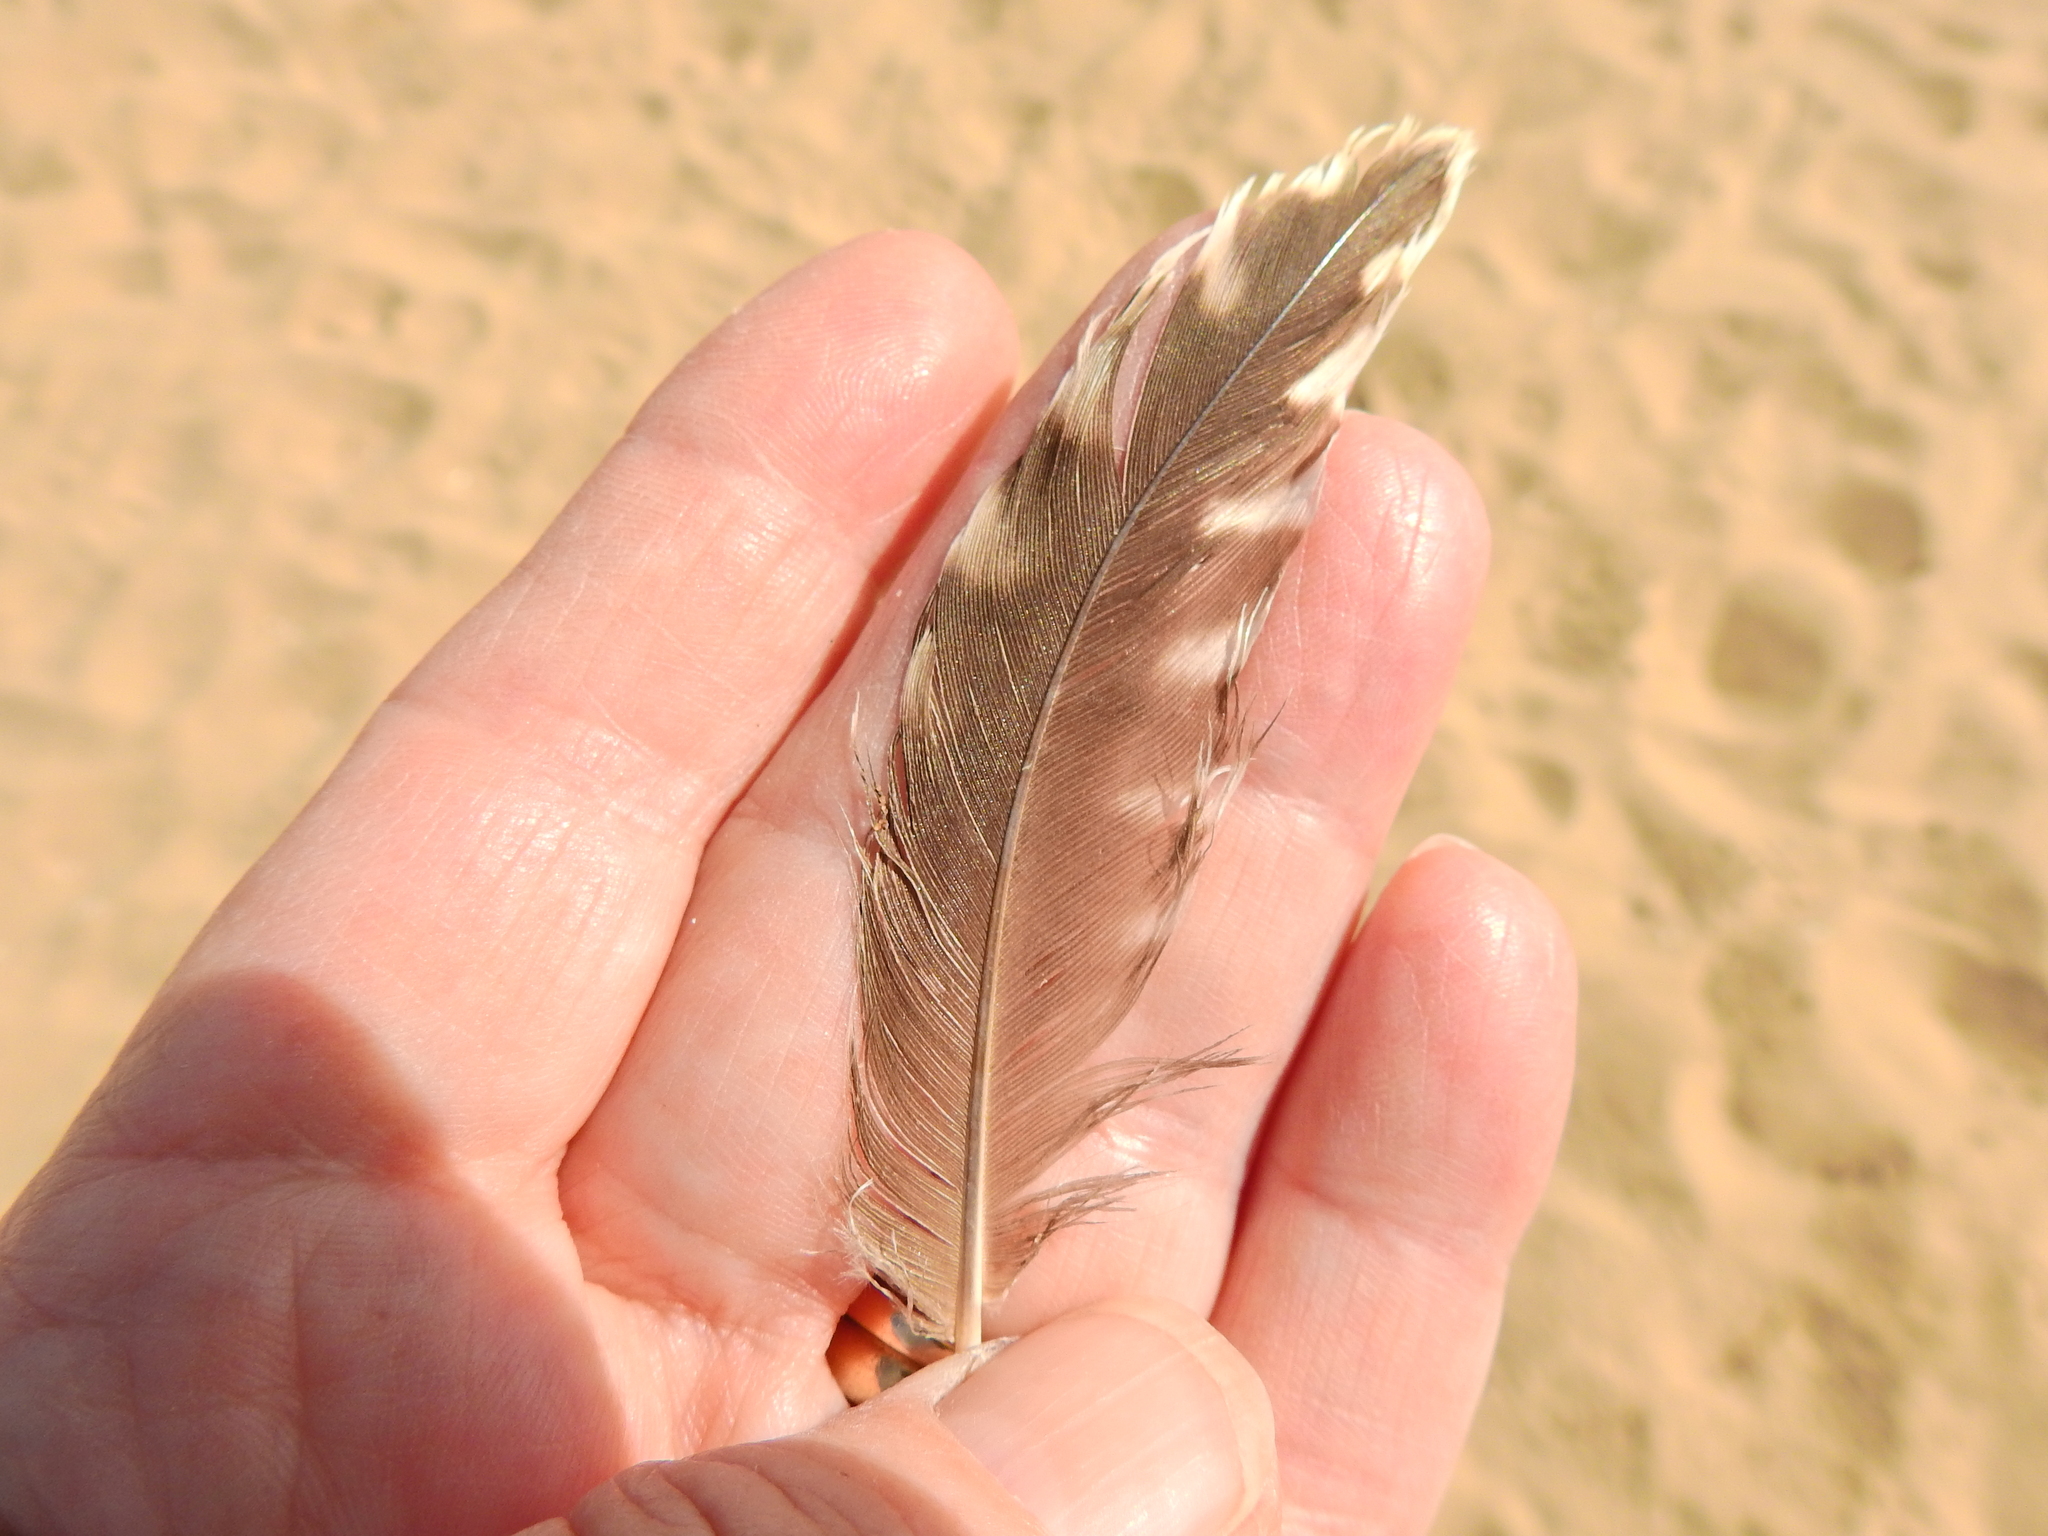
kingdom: Animalia
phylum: Chordata
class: Aves
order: Charadriiformes
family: Scolopacidae
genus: Numenius
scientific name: Numenius arquata
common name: Eurasian curlew
